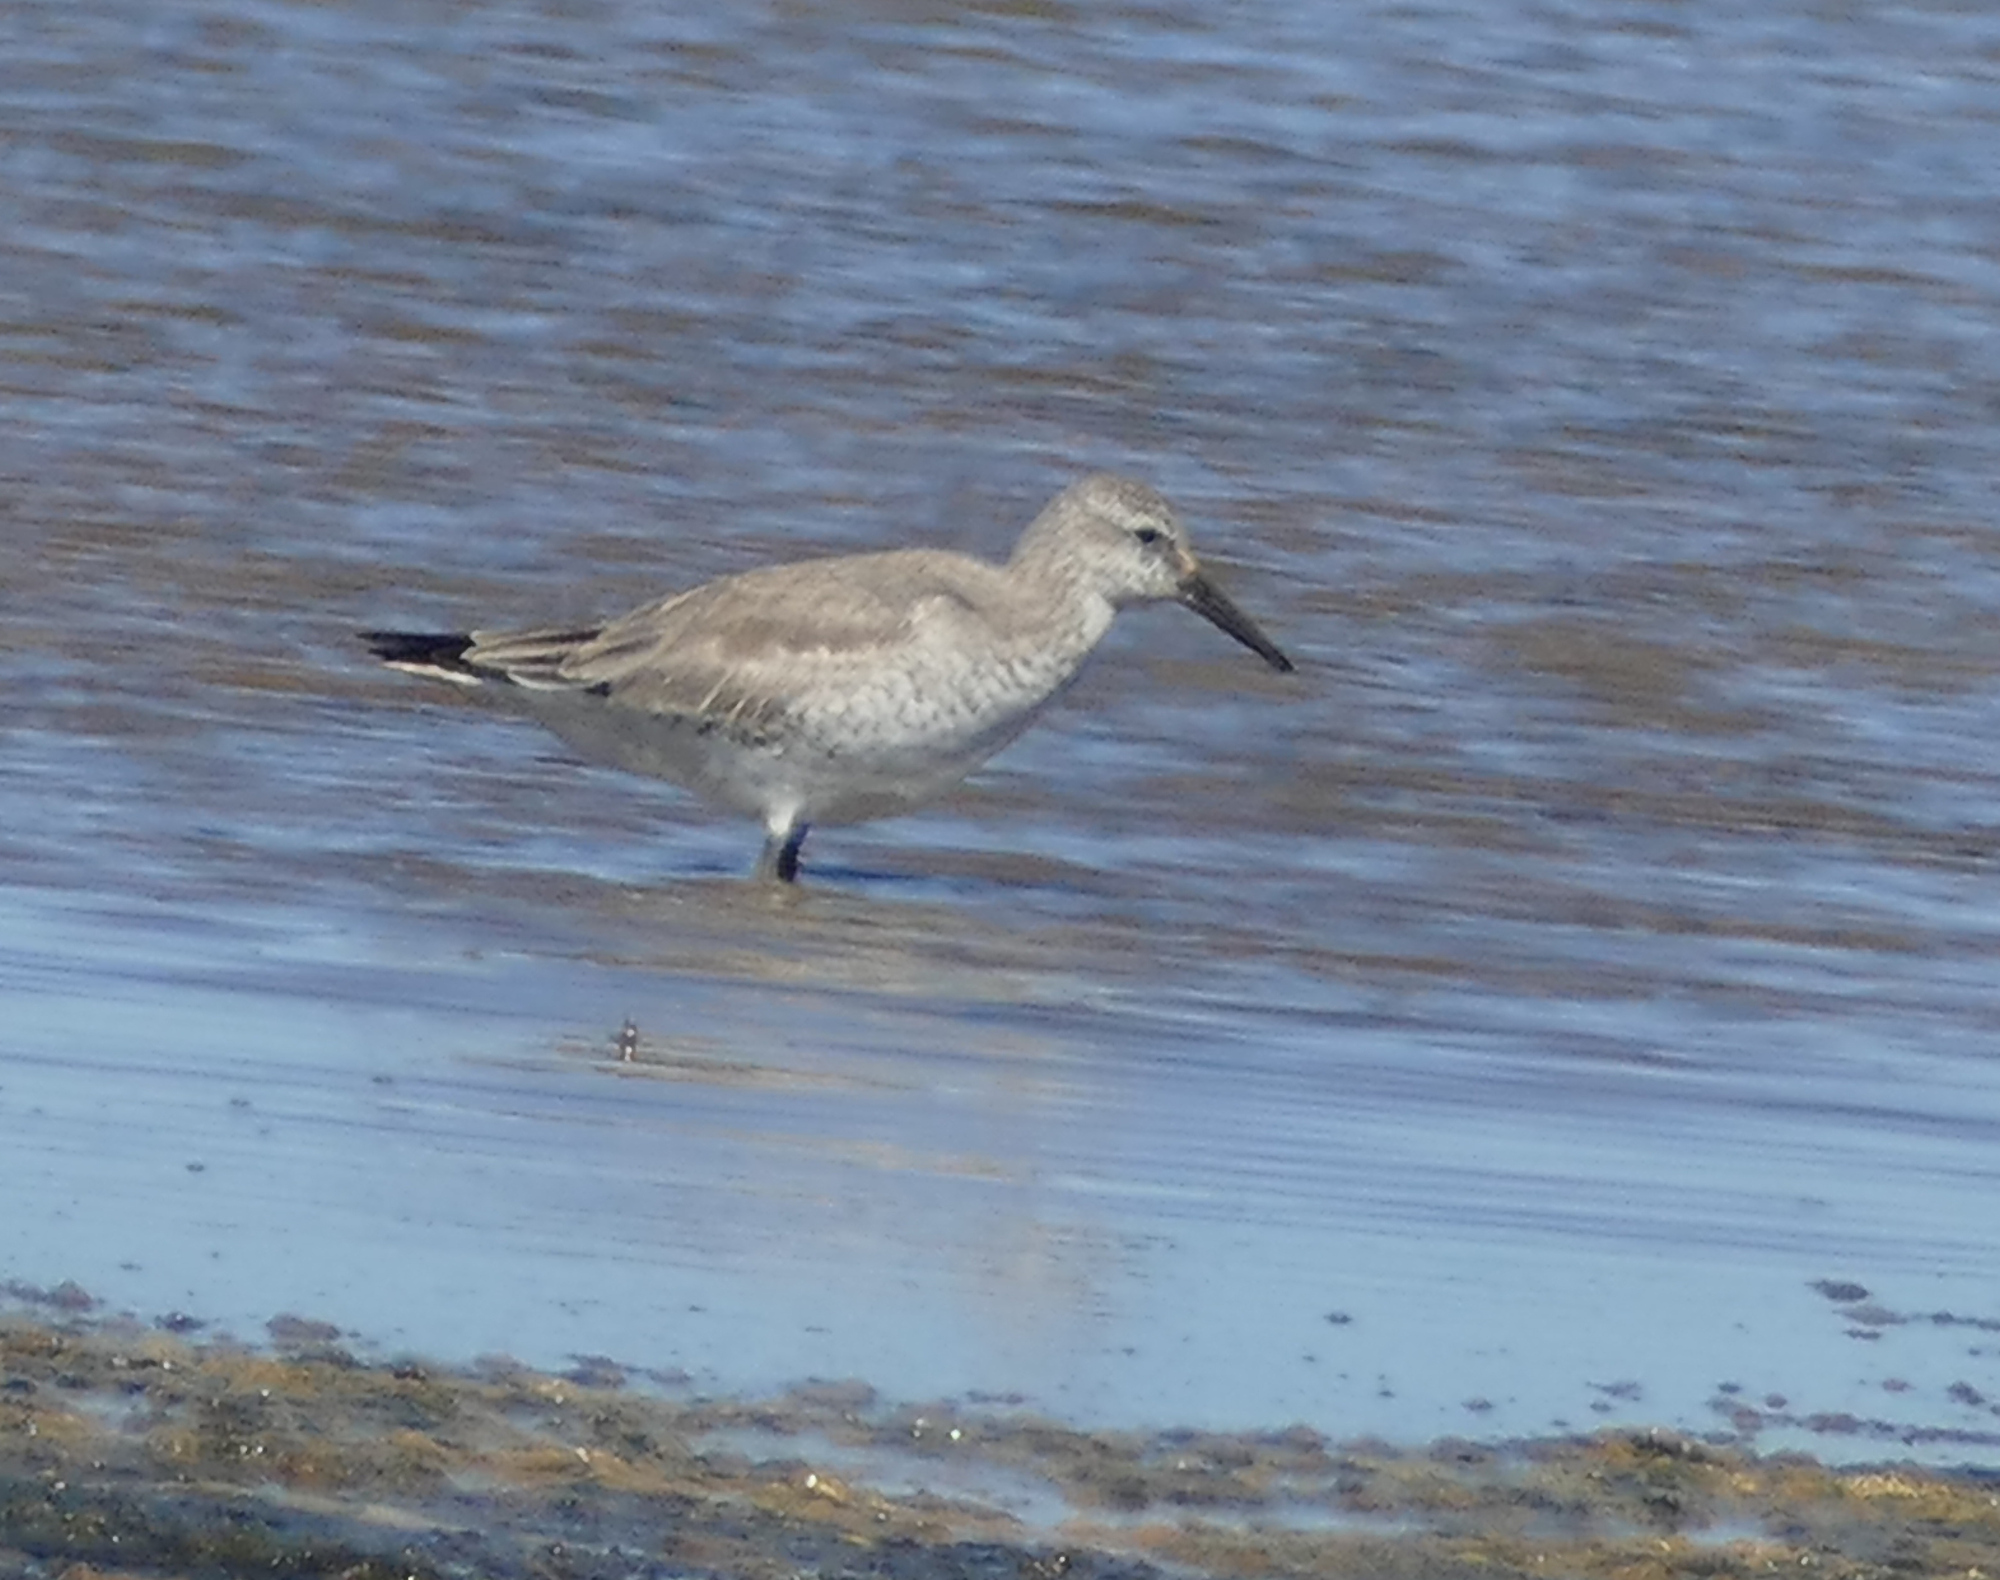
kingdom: Animalia
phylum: Chordata
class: Aves
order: Charadriiformes
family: Scolopacidae
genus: Calidris
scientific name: Calidris canutus
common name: Red knot
